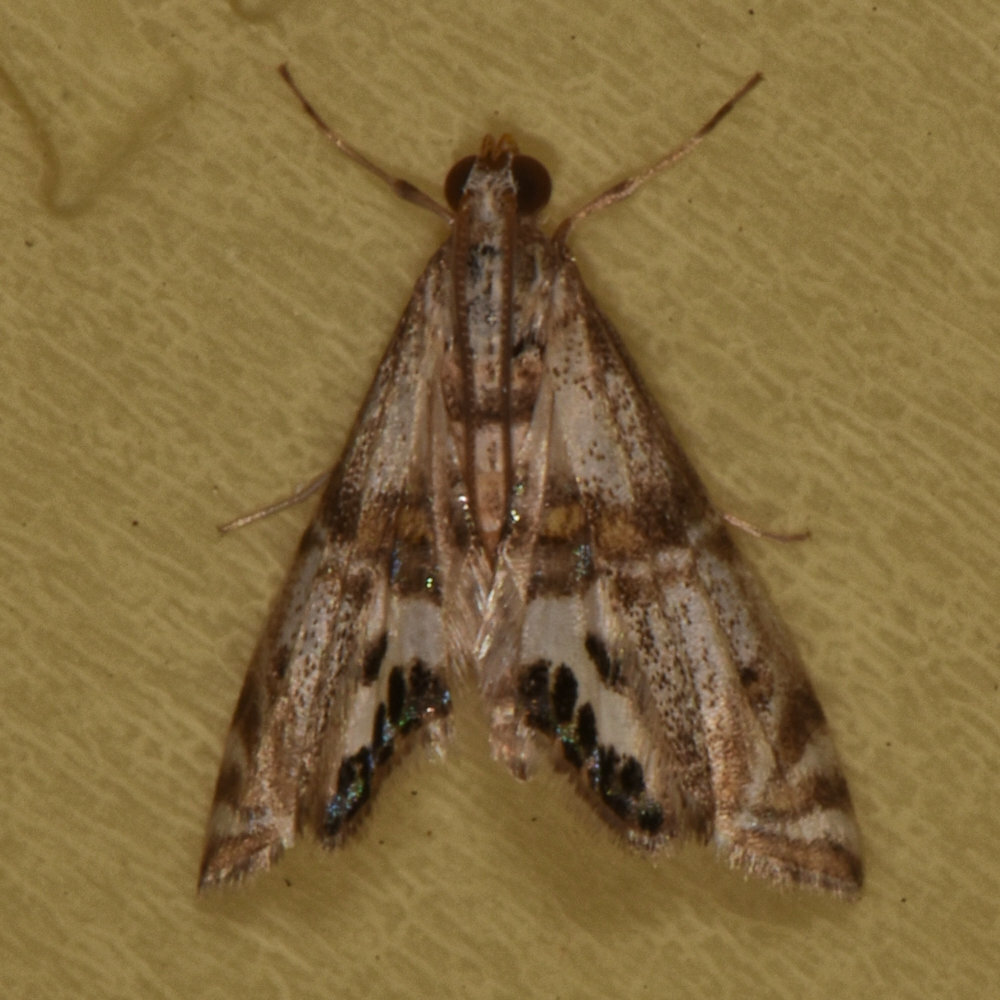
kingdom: Animalia
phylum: Arthropoda
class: Insecta
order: Lepidoptera
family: Crambidae
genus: Petrophila
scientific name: Petrophila bifascialis
